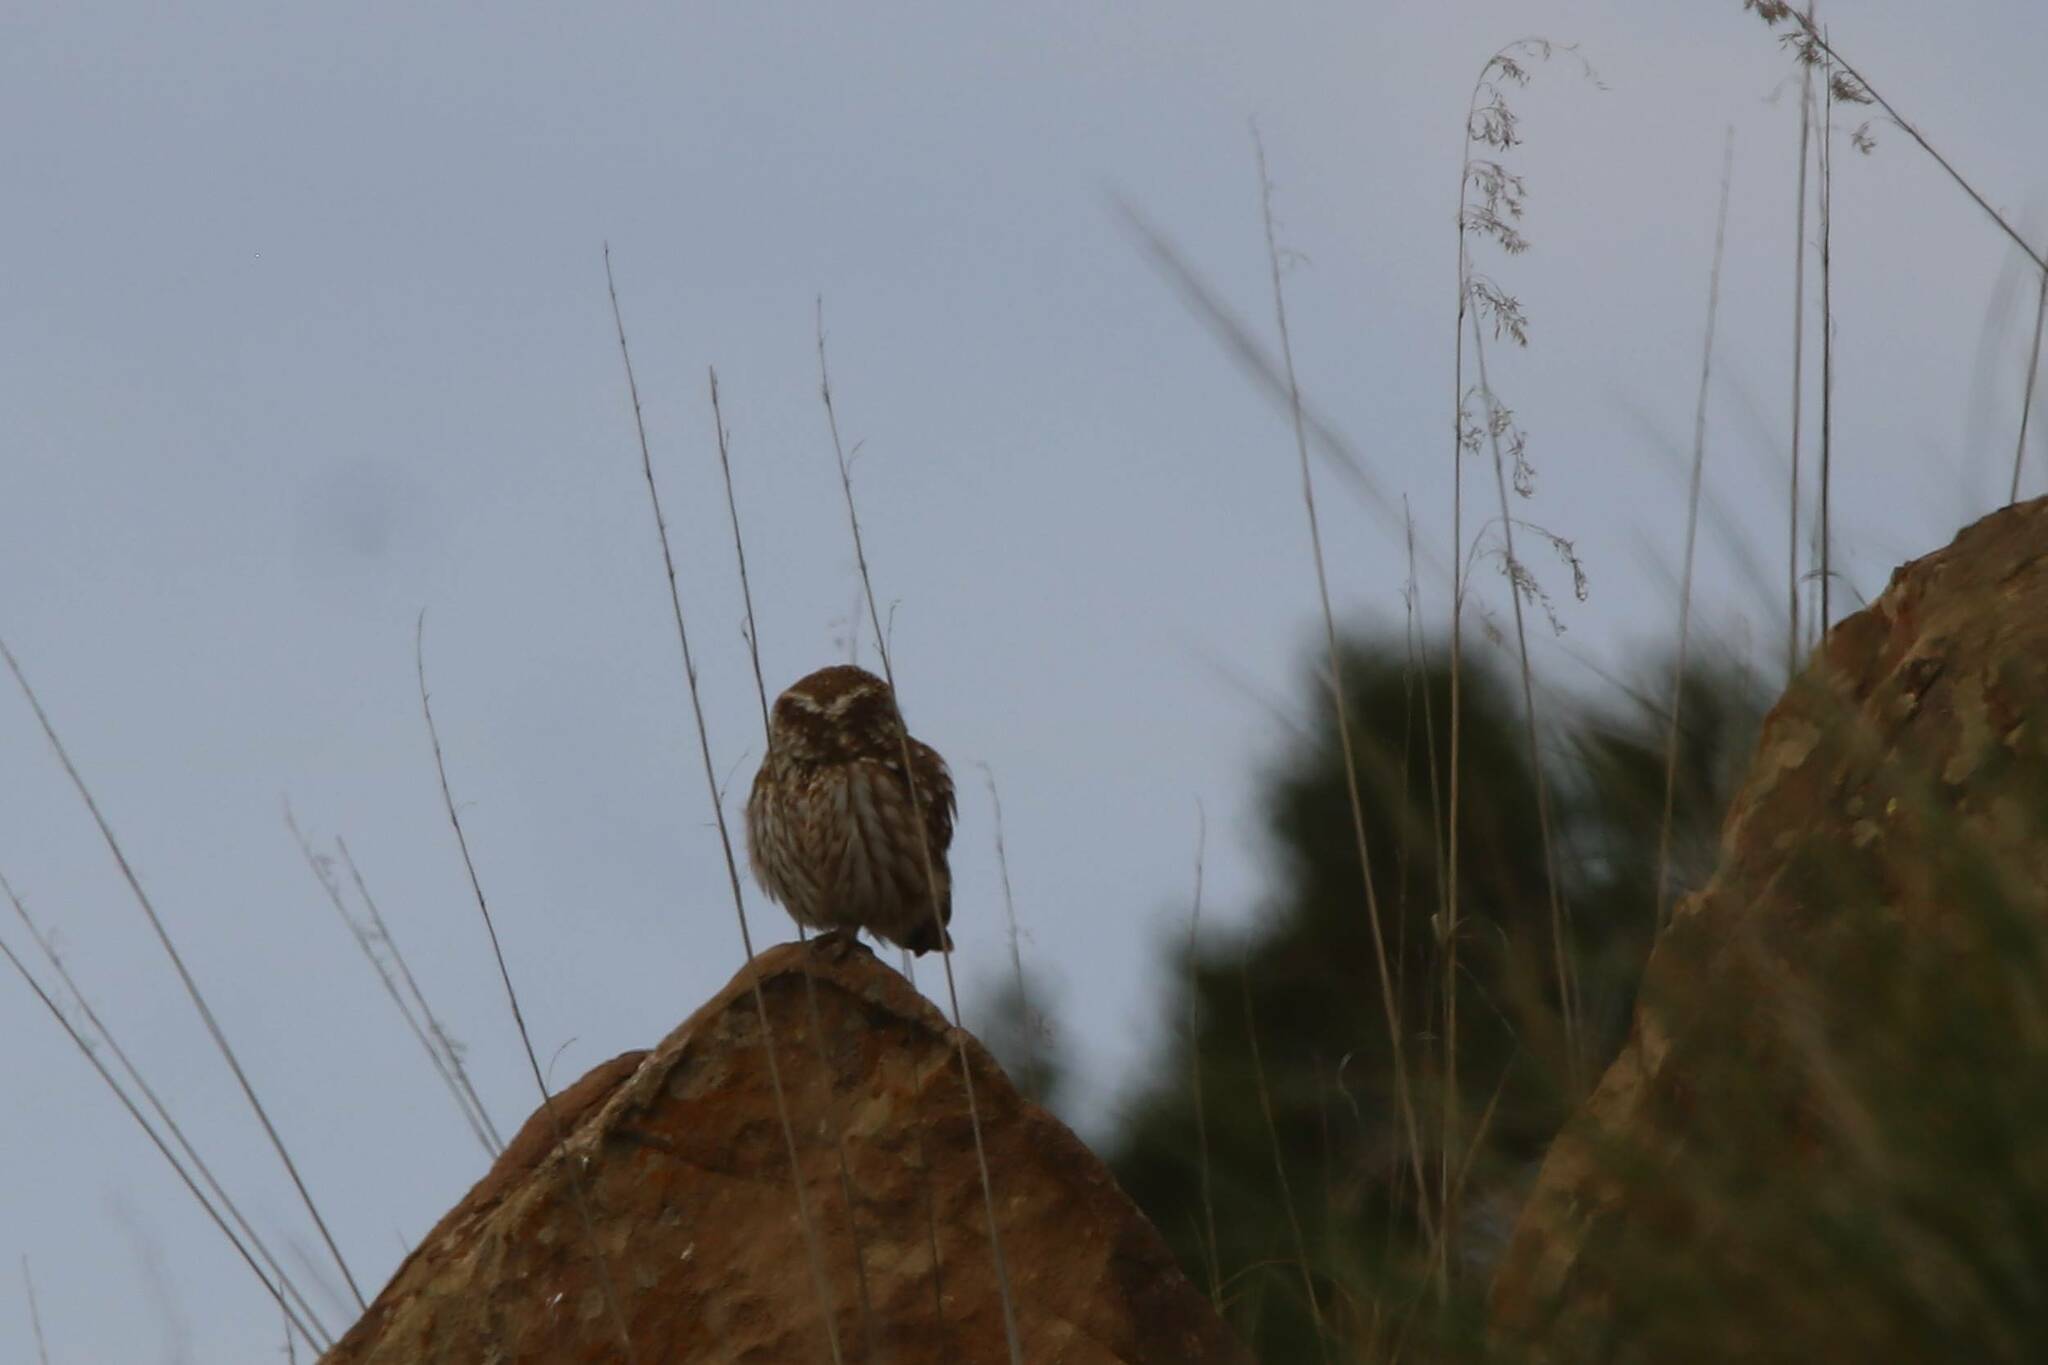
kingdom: Animalia
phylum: Chordata
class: Aves
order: Strigiformes
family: Strigidae
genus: Athene
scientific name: Athene noctua
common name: Little owl
